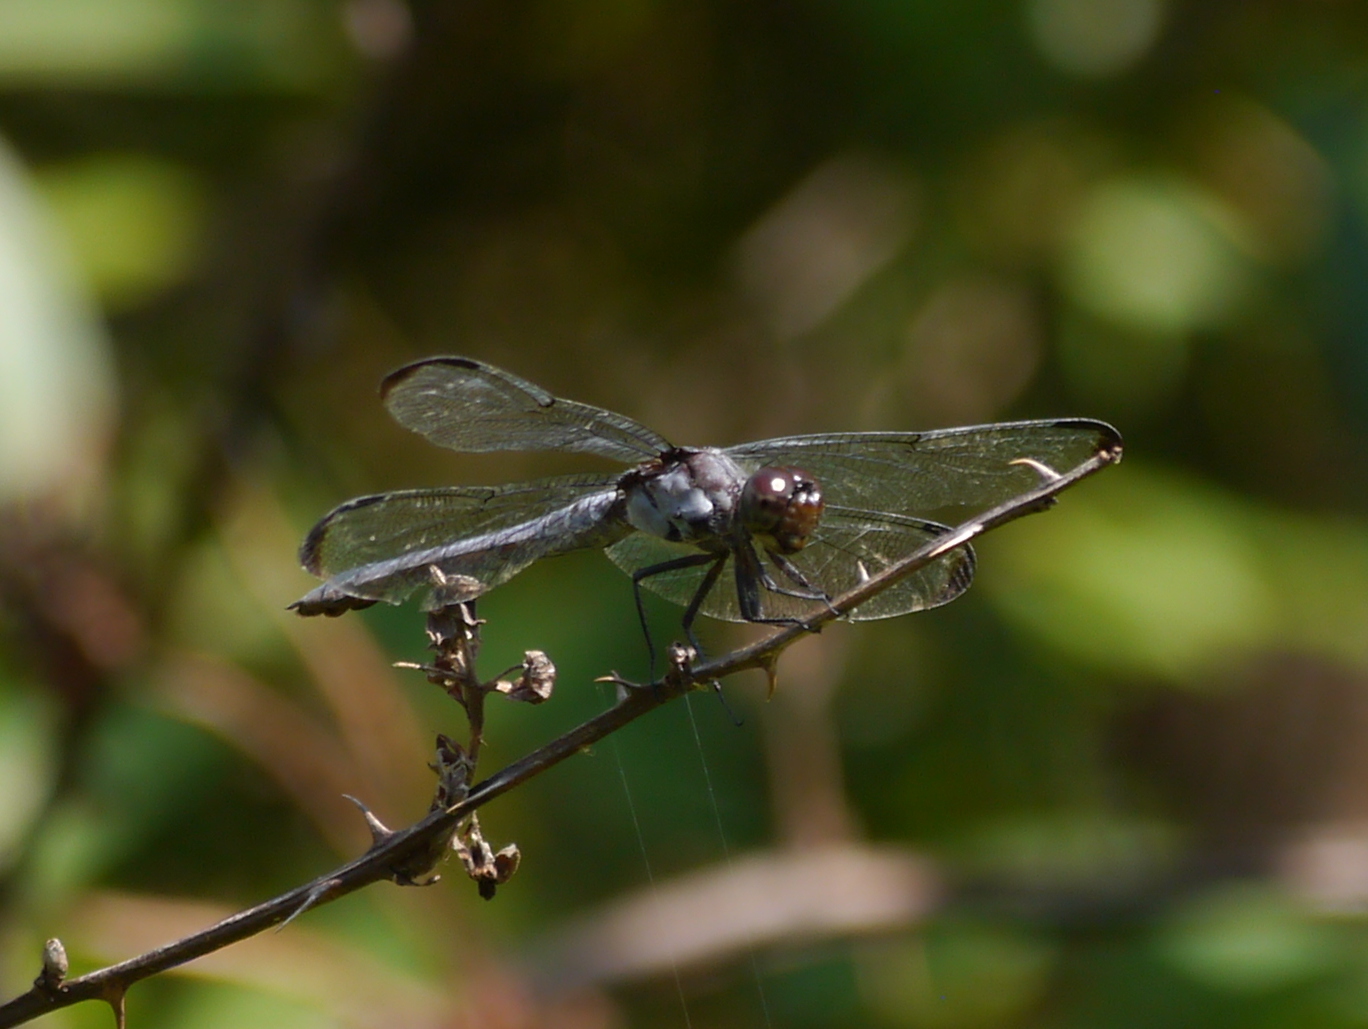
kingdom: Animalia
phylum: Arthropoda
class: Insecta
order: Odonata
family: Libellulidae
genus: Libellula
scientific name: Libellula vibrans
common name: Great blue skimmer
